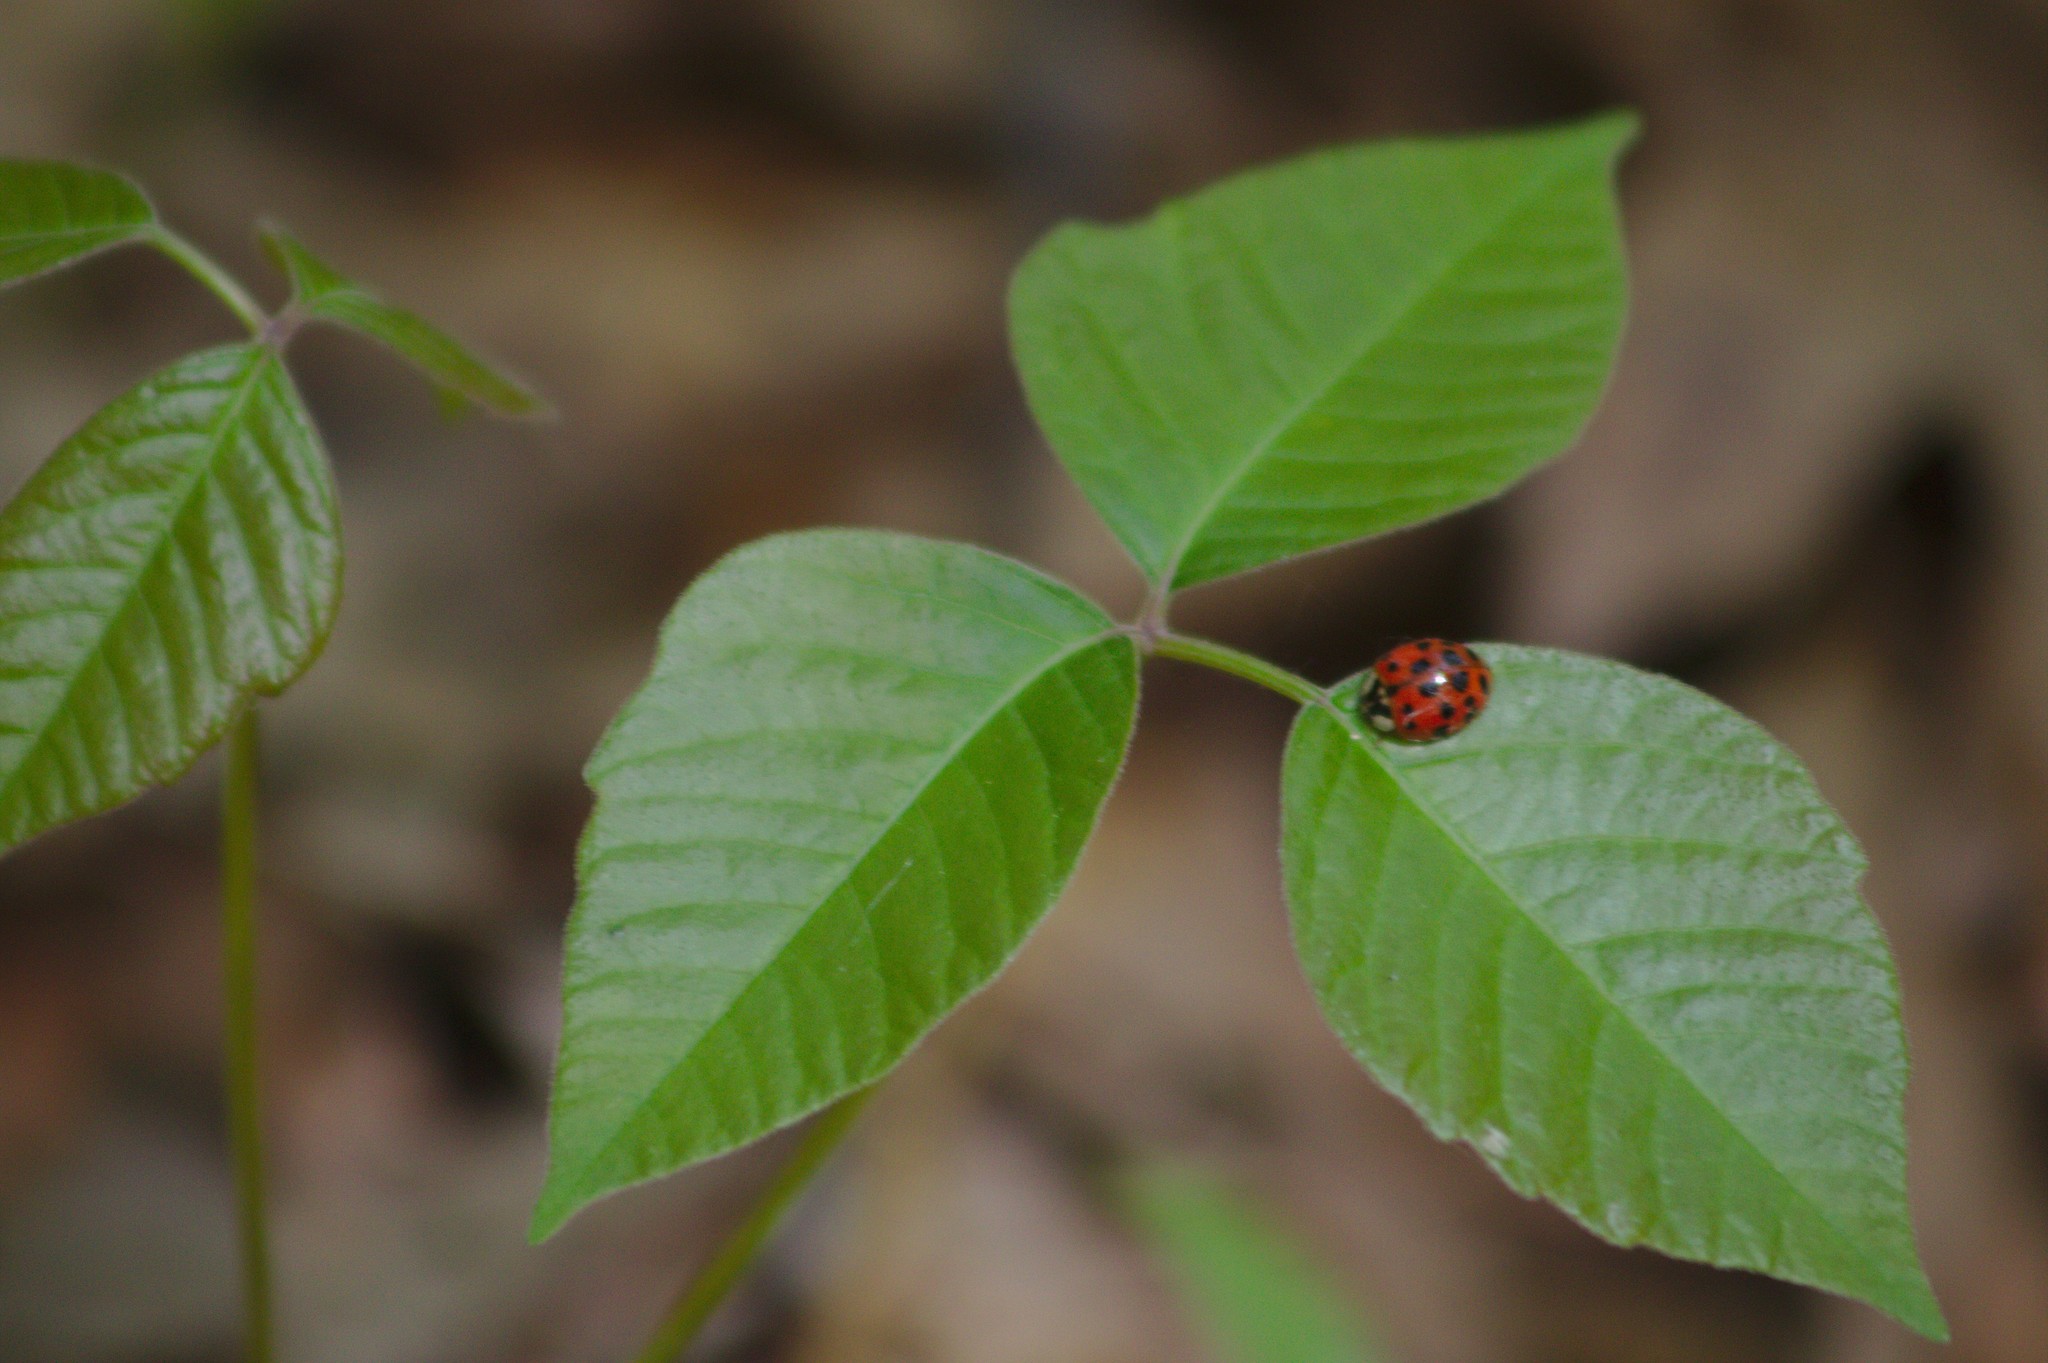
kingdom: Animalia
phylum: Arthropoda
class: Insecta
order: Coleoptera
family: Coccinellidae
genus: Harmonia
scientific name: Harmonia axyridis
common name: Harlequin ladybird
